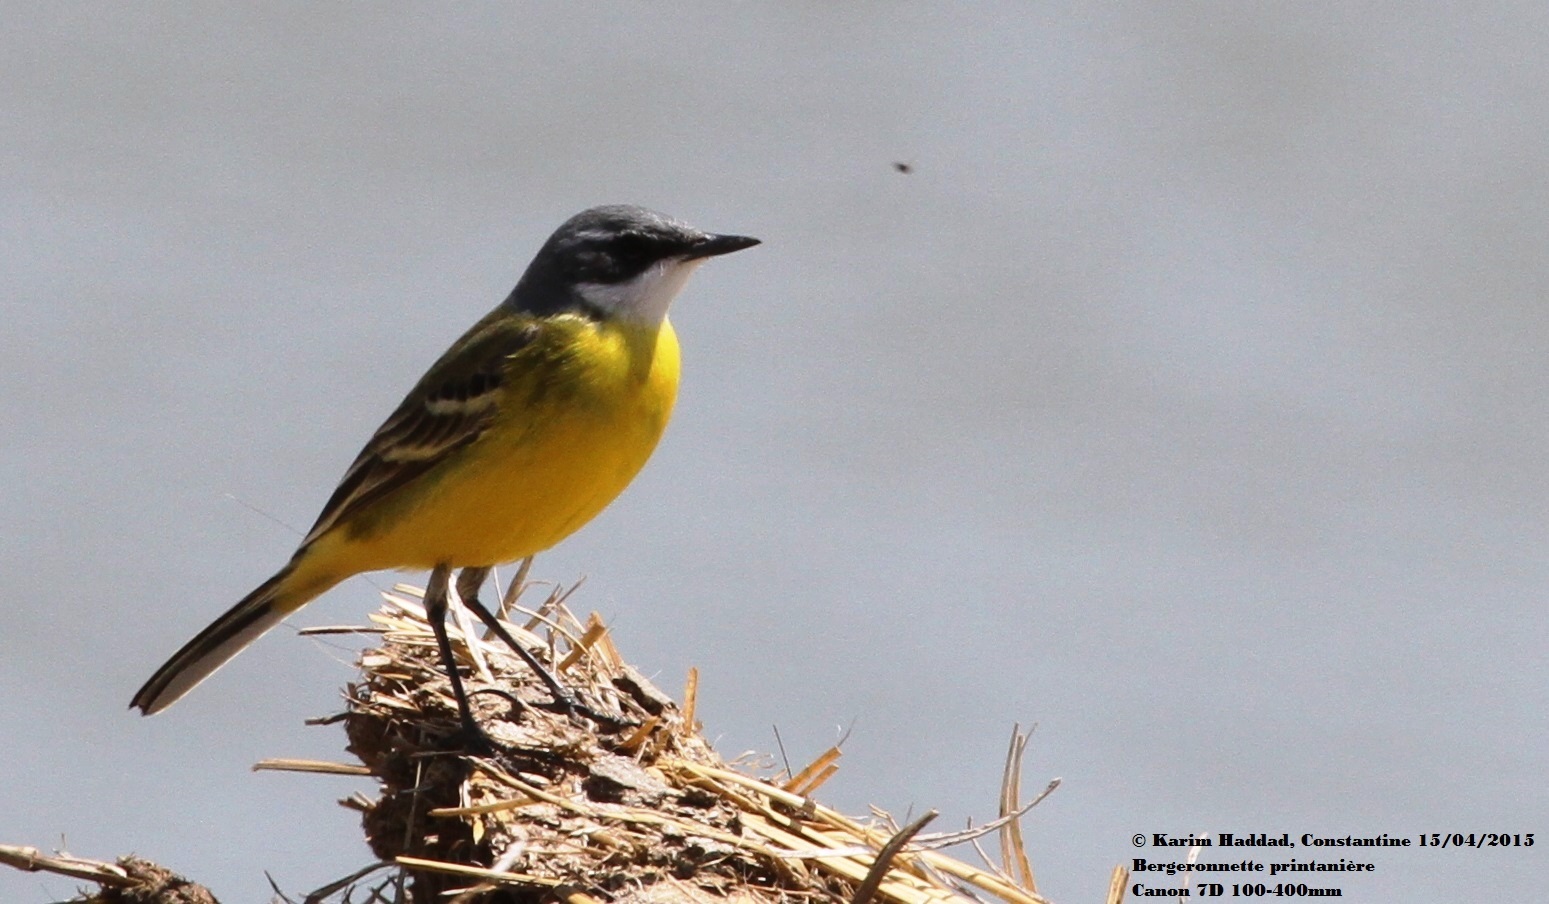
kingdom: Animalia
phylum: Chordata
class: Aves
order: Passeriformes
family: Motacillidae
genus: Motacilla
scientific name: Motacilla flava
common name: Western yellow wagtail
